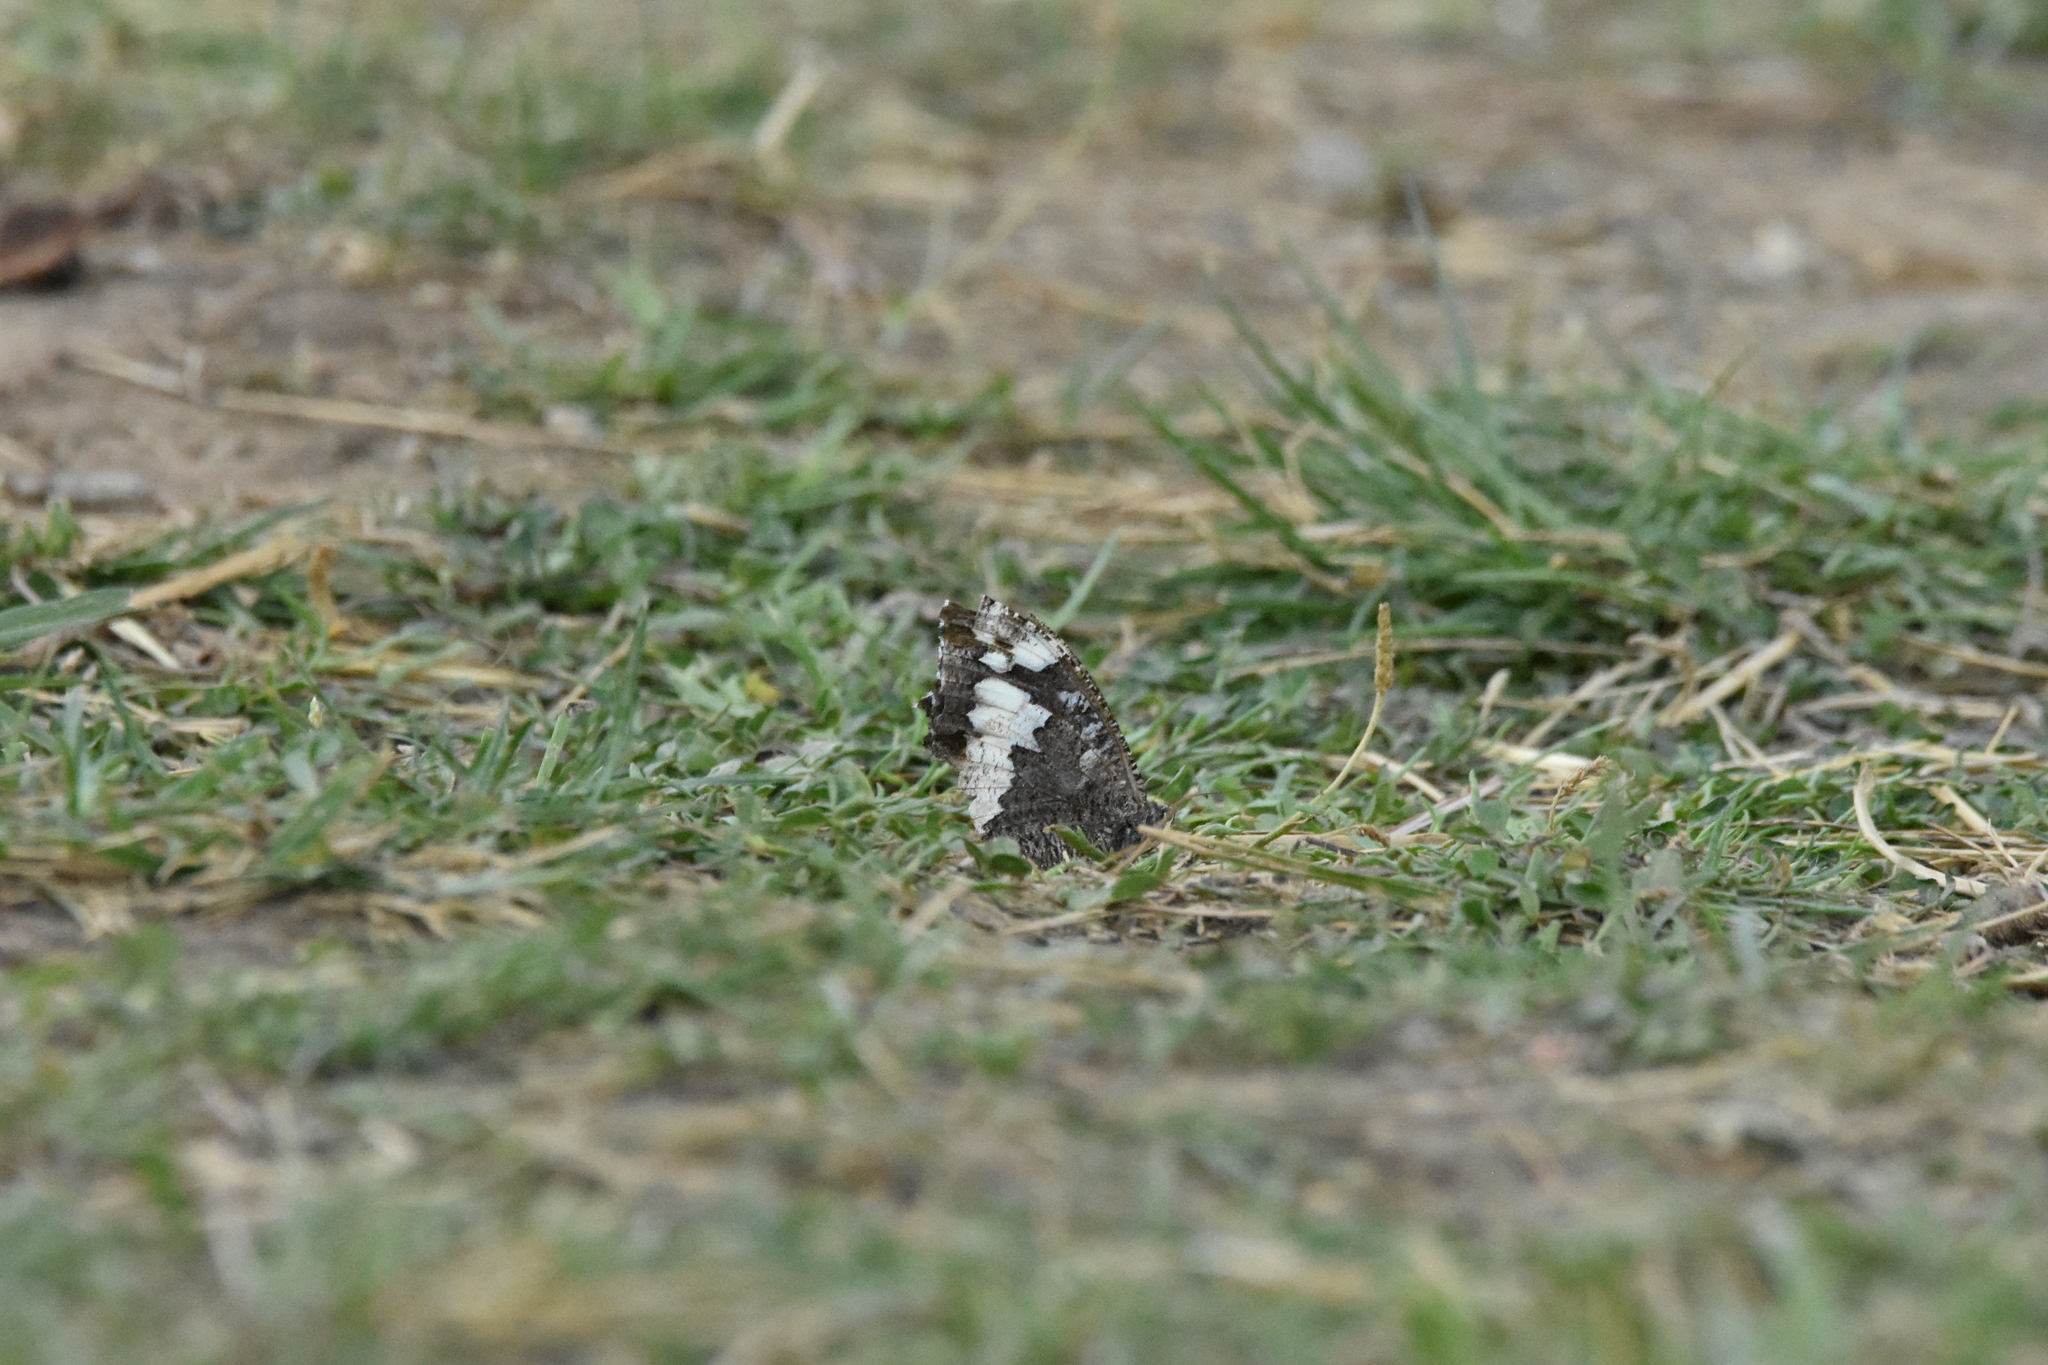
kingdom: Animalia
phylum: Arthropoda
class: Insecta
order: Lepidoptera
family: Lycaenidae
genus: Loweia
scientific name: Loweia tityrus
